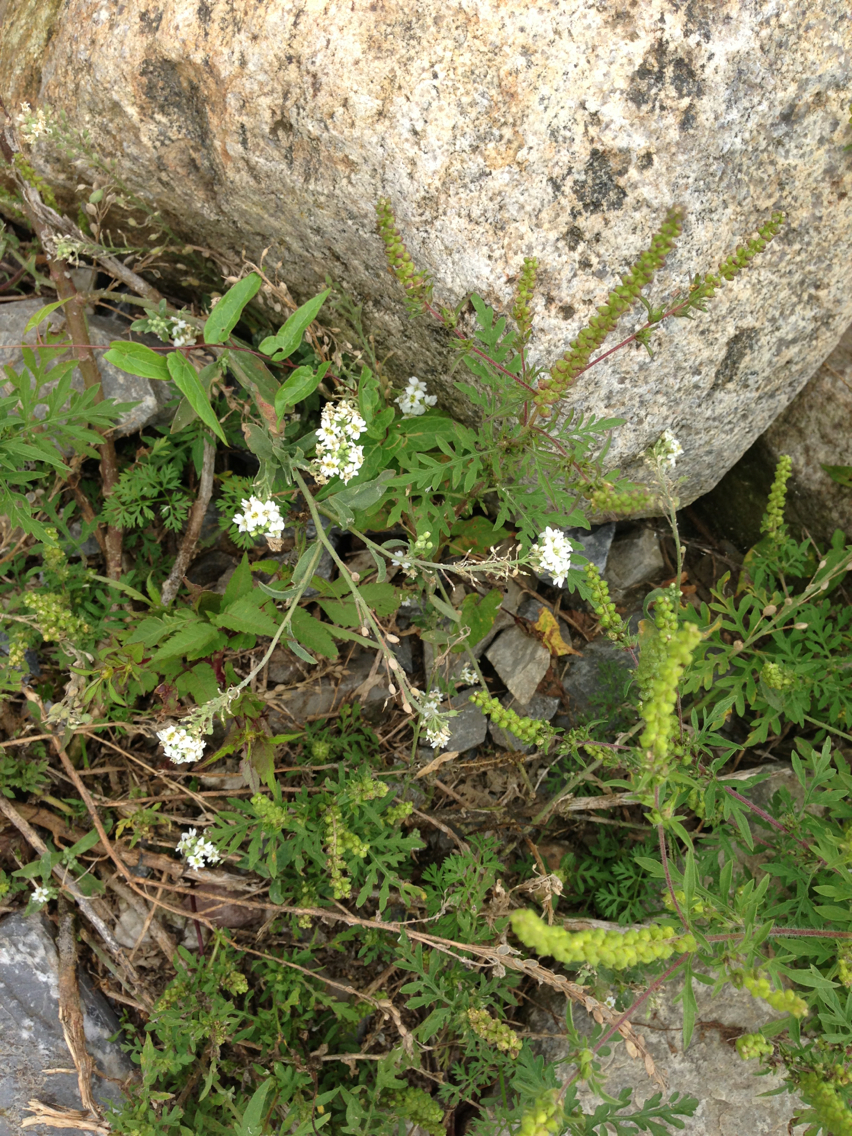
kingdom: Plantae
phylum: Tracheophyta
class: Magnoliopsida
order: Brassicales
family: Brassicaceae
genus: Berteroa
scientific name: Berteroa incana
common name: Hoary alison
